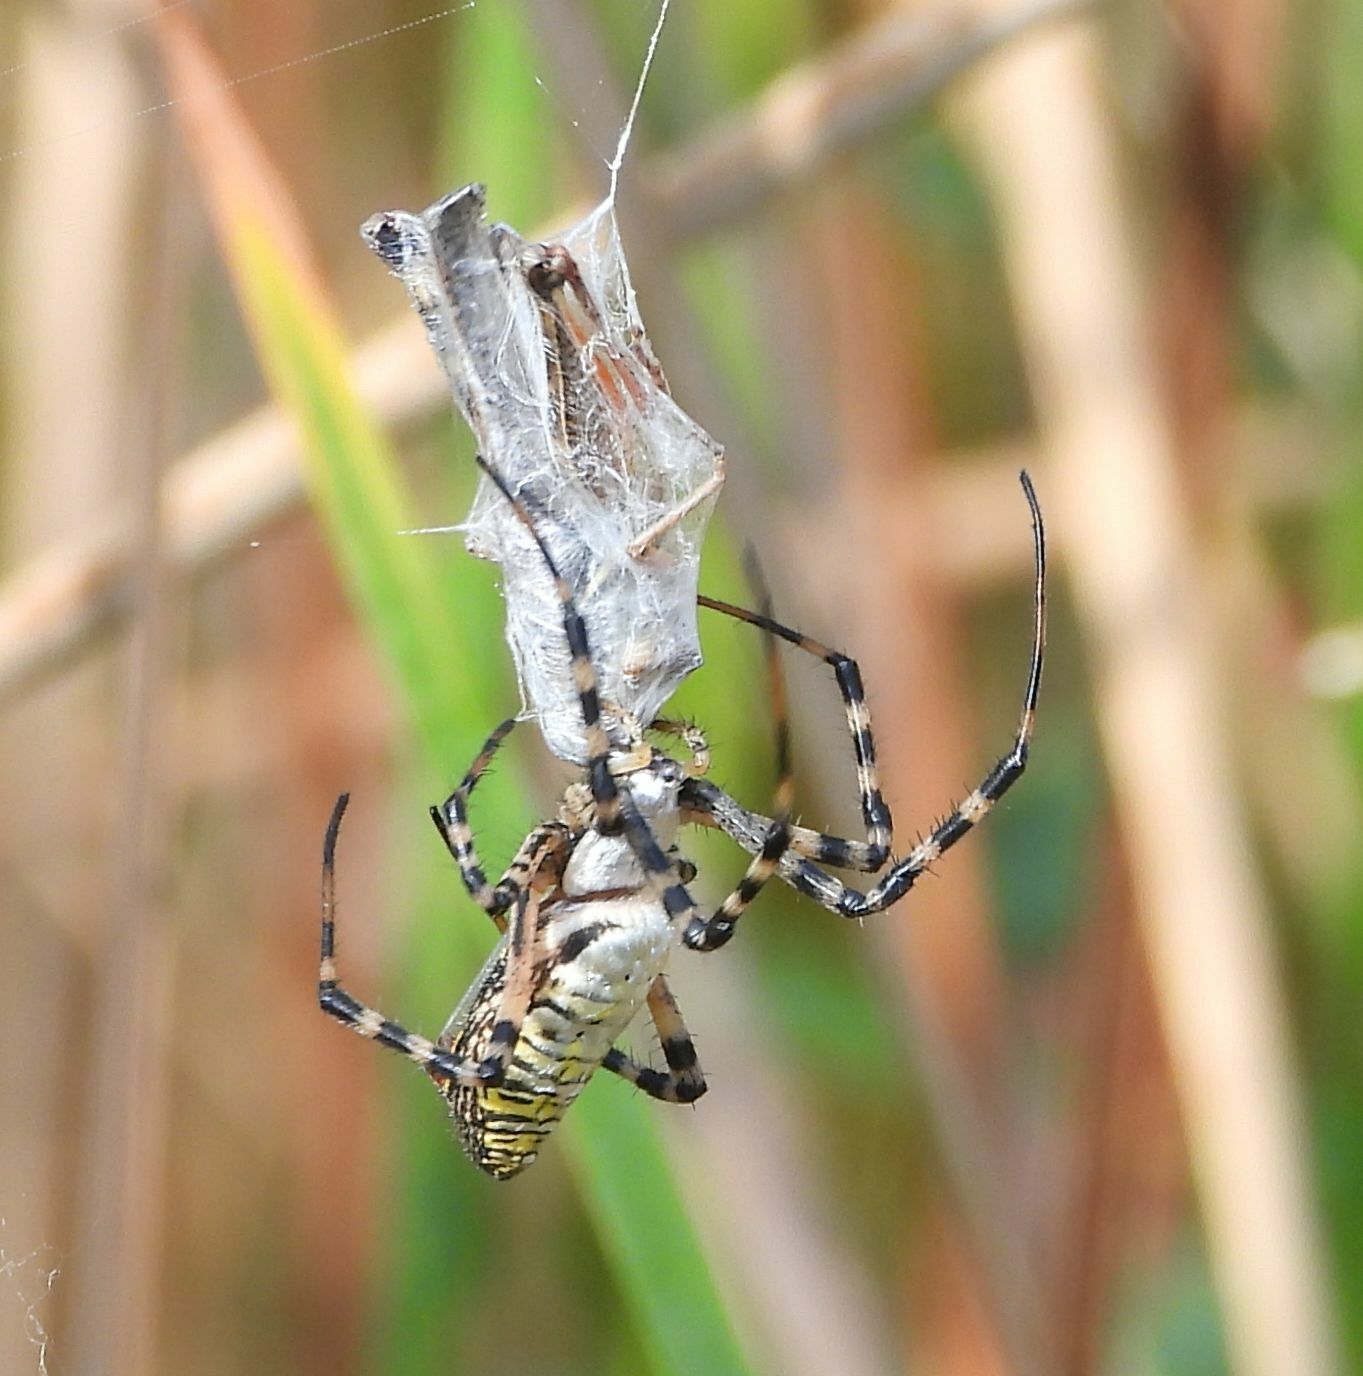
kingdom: Animalia
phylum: Arthropoda
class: Arachnida
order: Araneae
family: Araneidae
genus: Argiope
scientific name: Argiope trifasciata
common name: Banded garden spider
